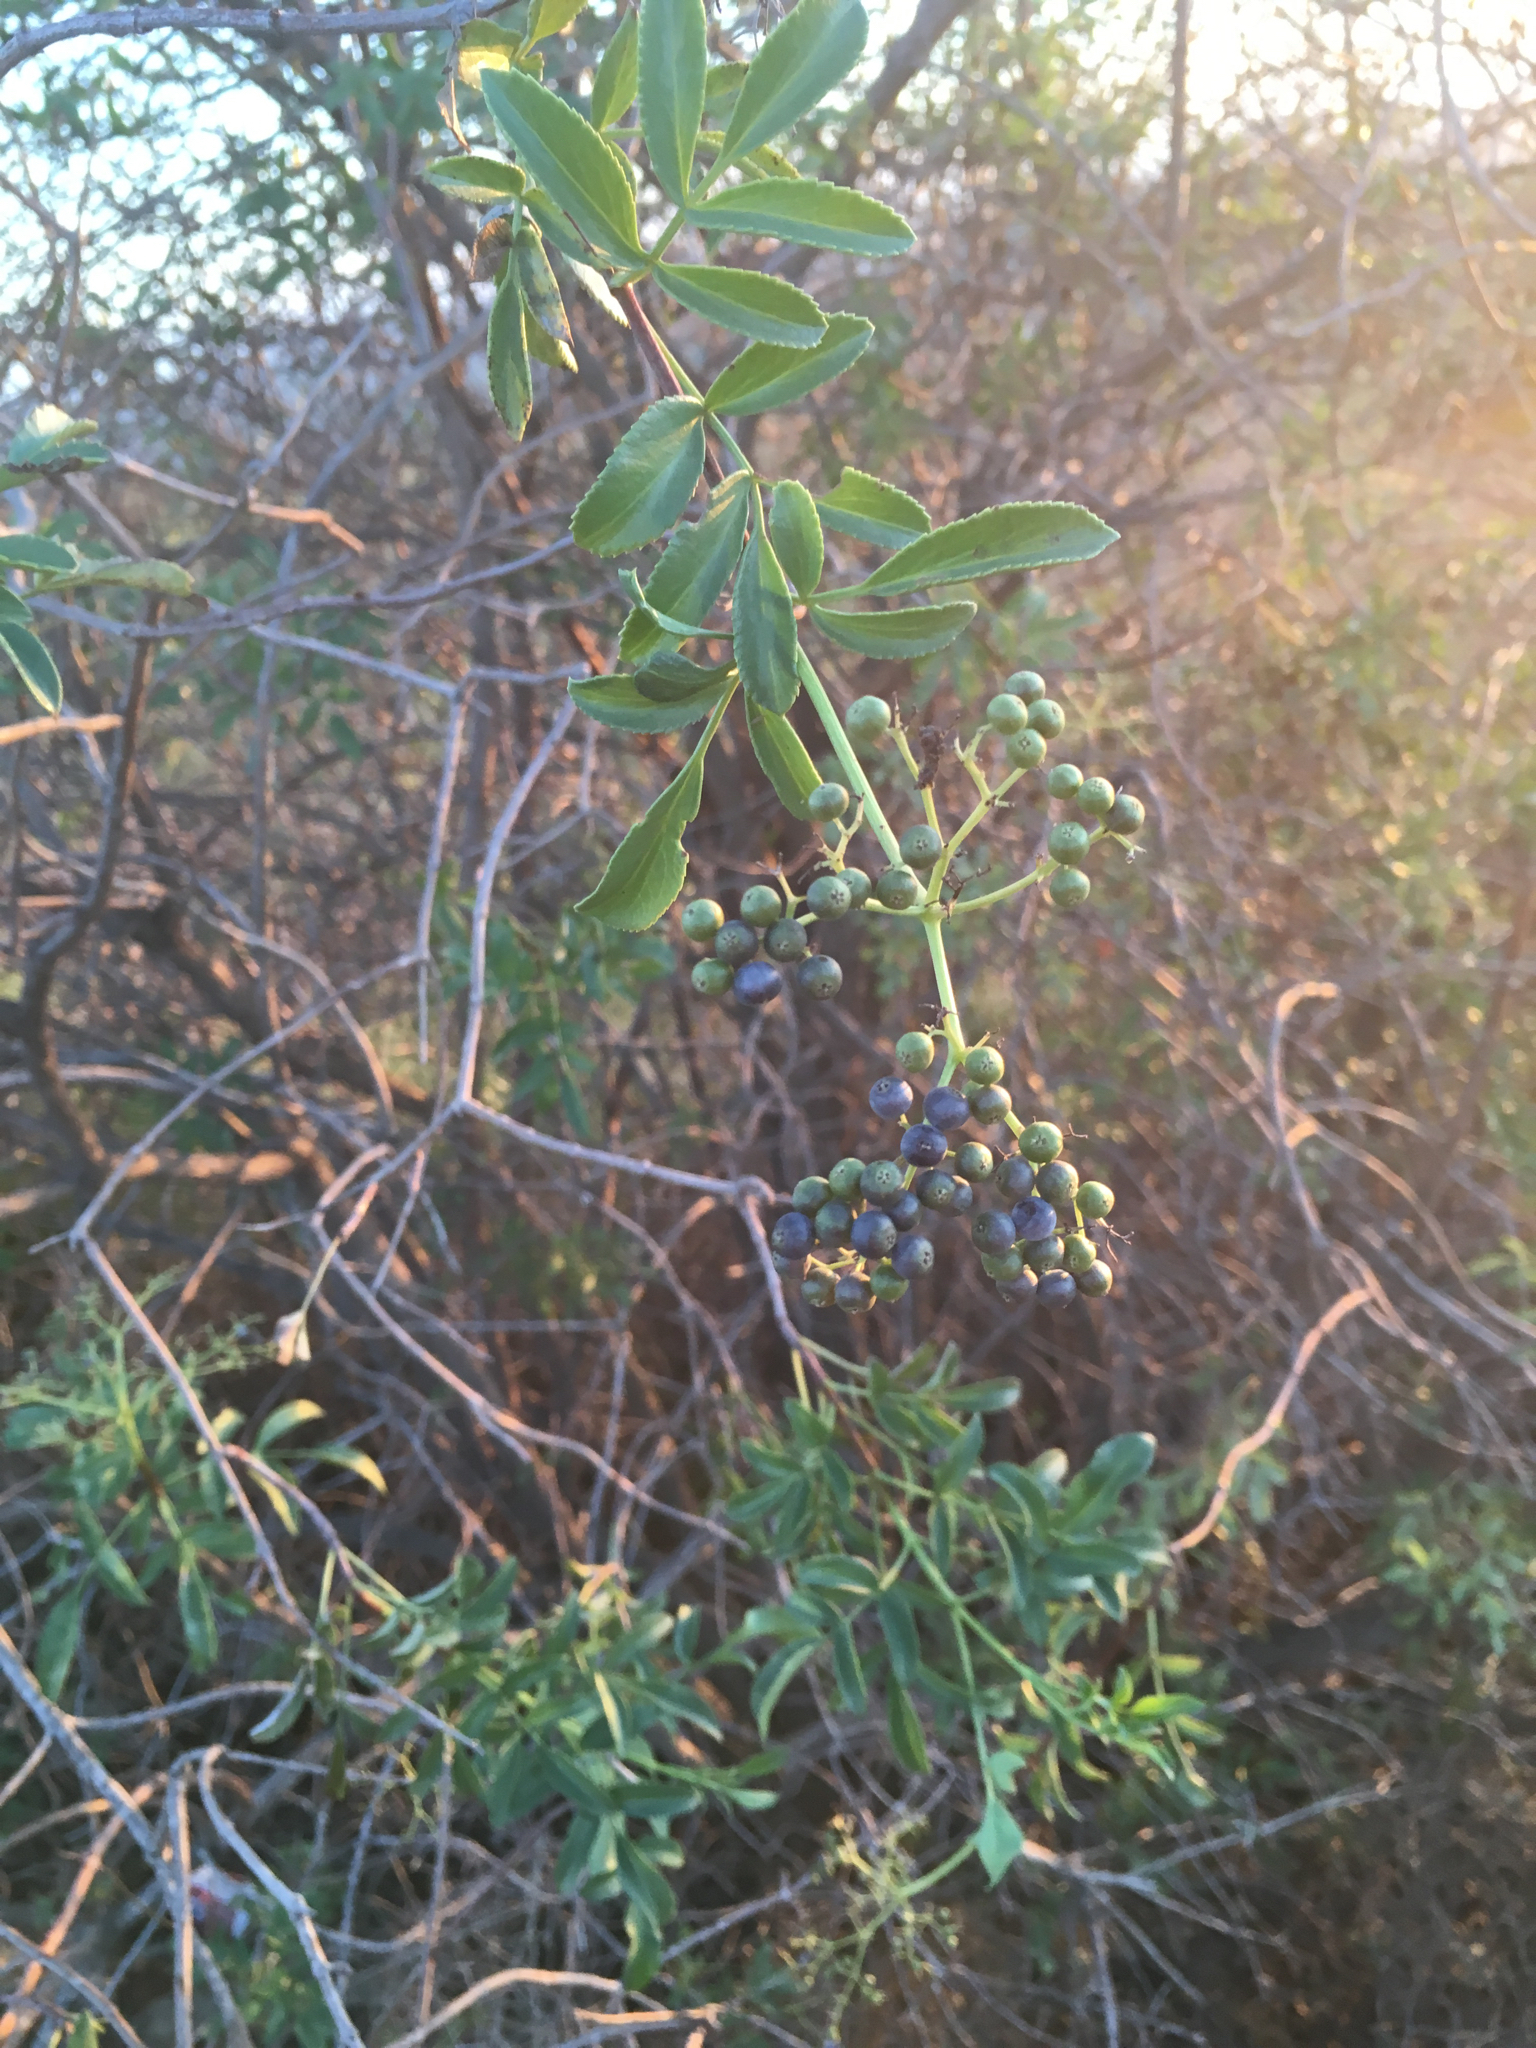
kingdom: Plantae
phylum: Tracheophyta
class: Magnoliopsida
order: Dipsacales
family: Viburnaceae
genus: Sambucus
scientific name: Sambucus cerulea
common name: Blue elder
